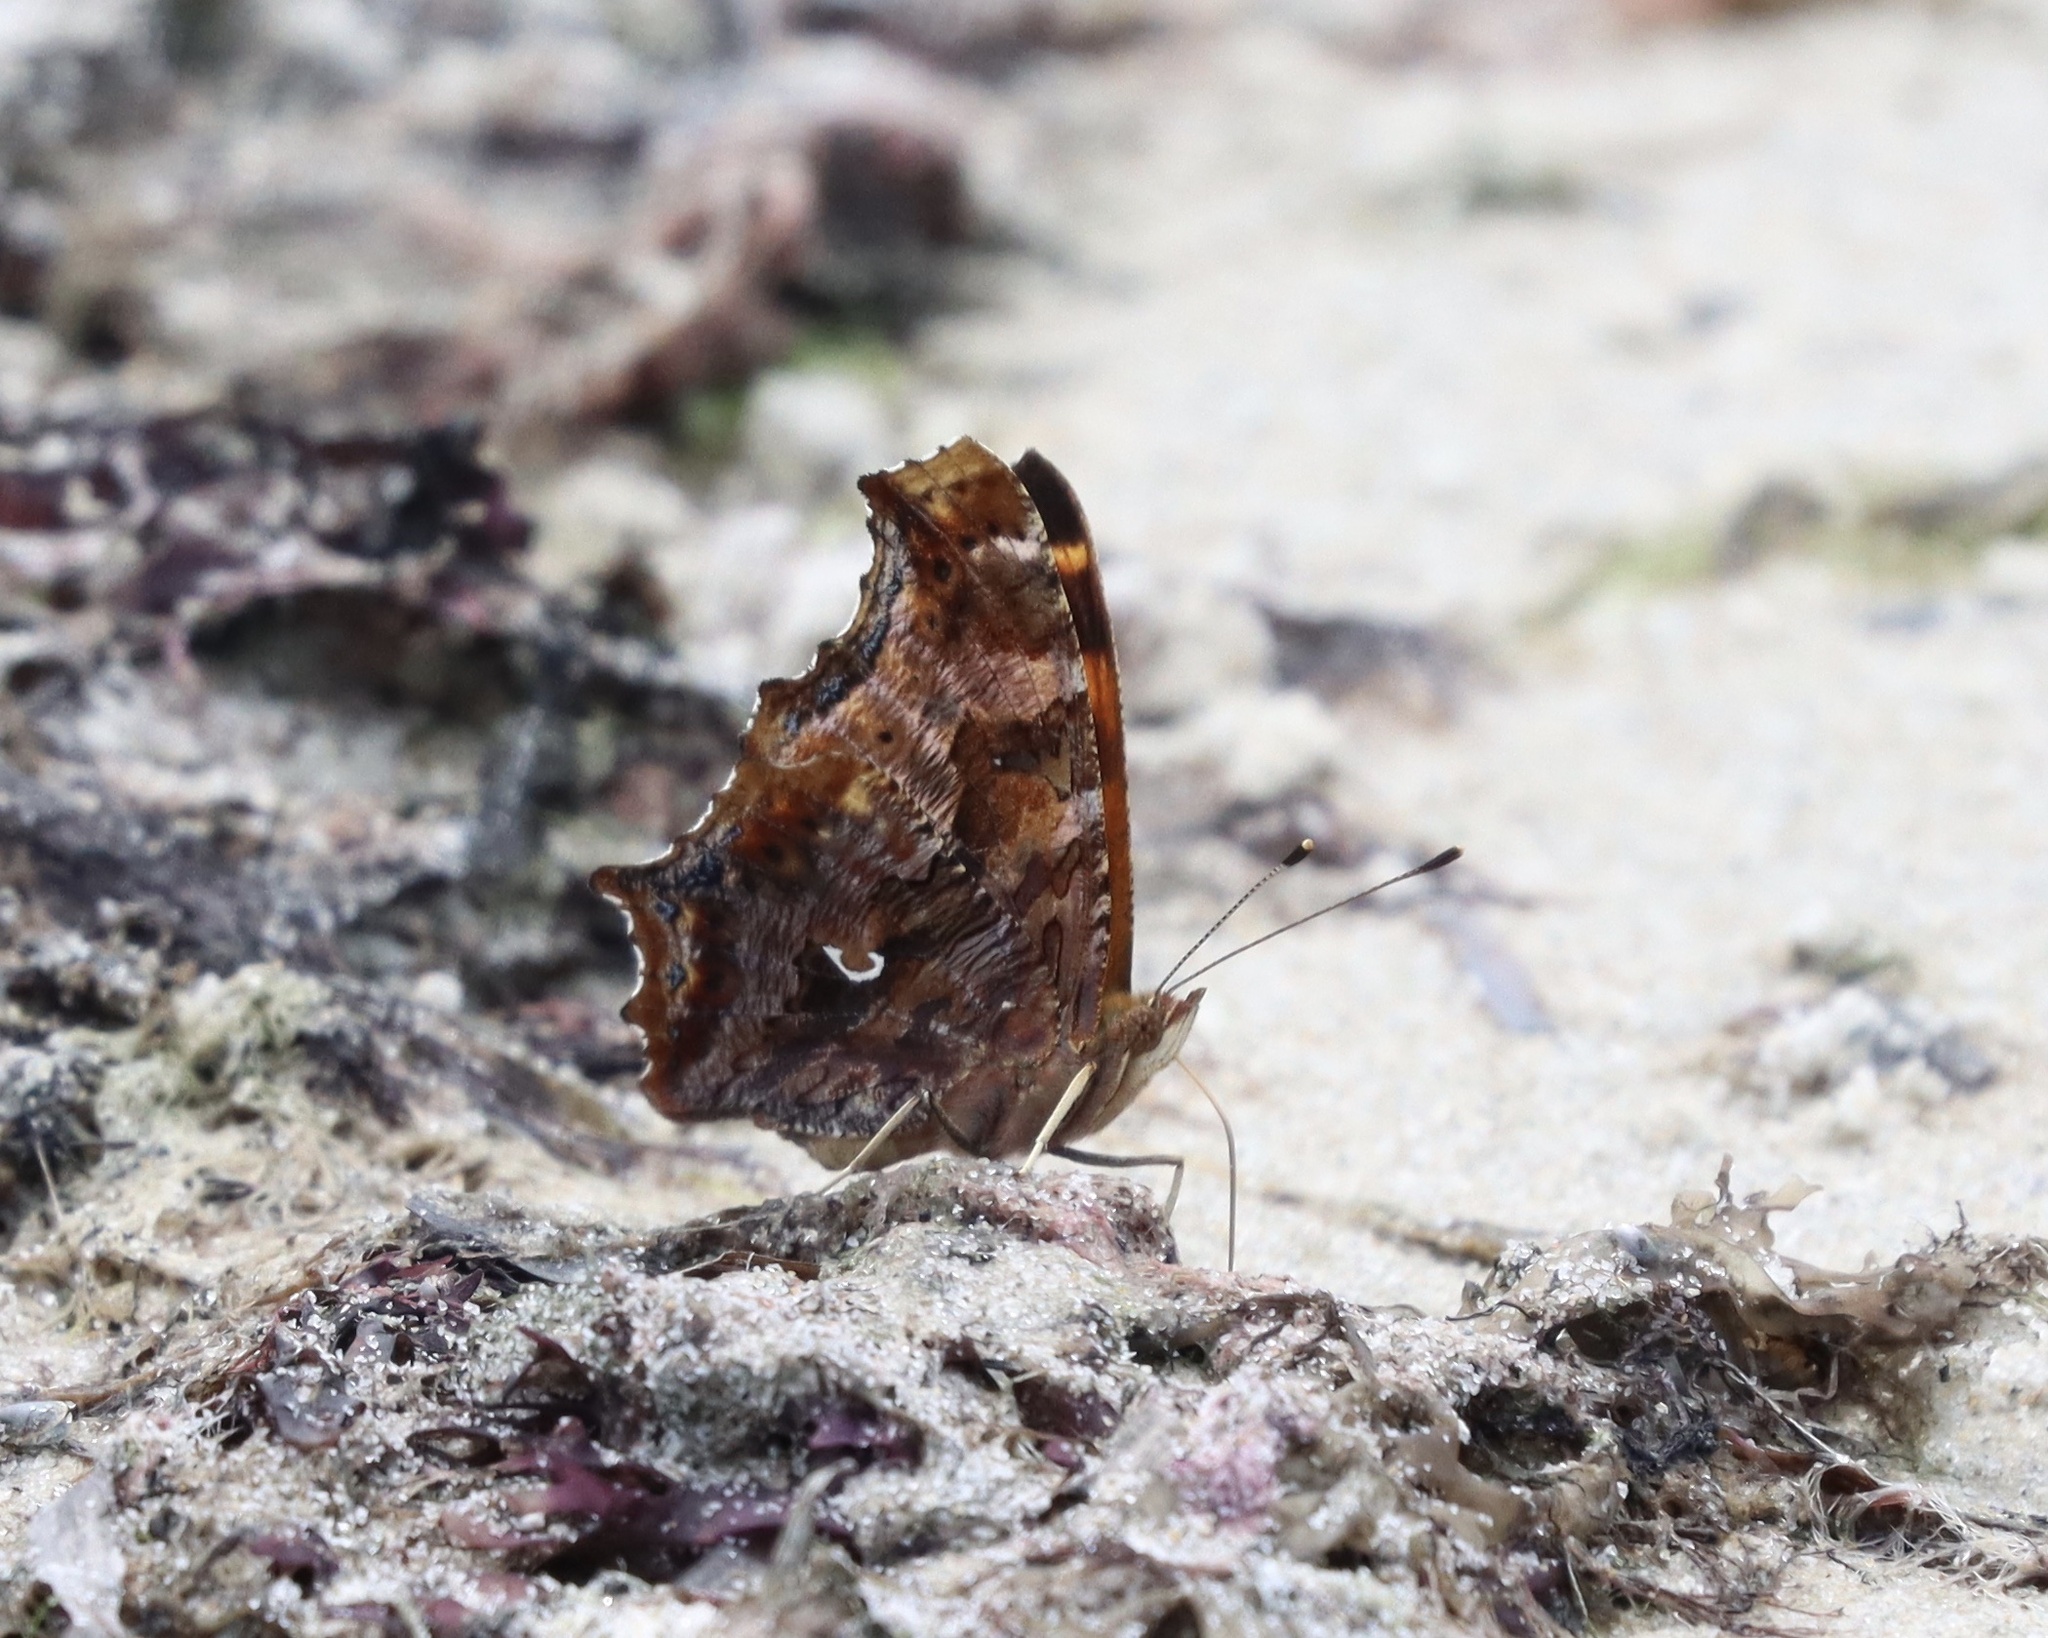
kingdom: Animalia
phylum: Arthropoda
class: Insecta
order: Lepidoptera
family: Nymphalidae
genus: Polygonia
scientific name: Polygonia comma
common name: Eastern comma
